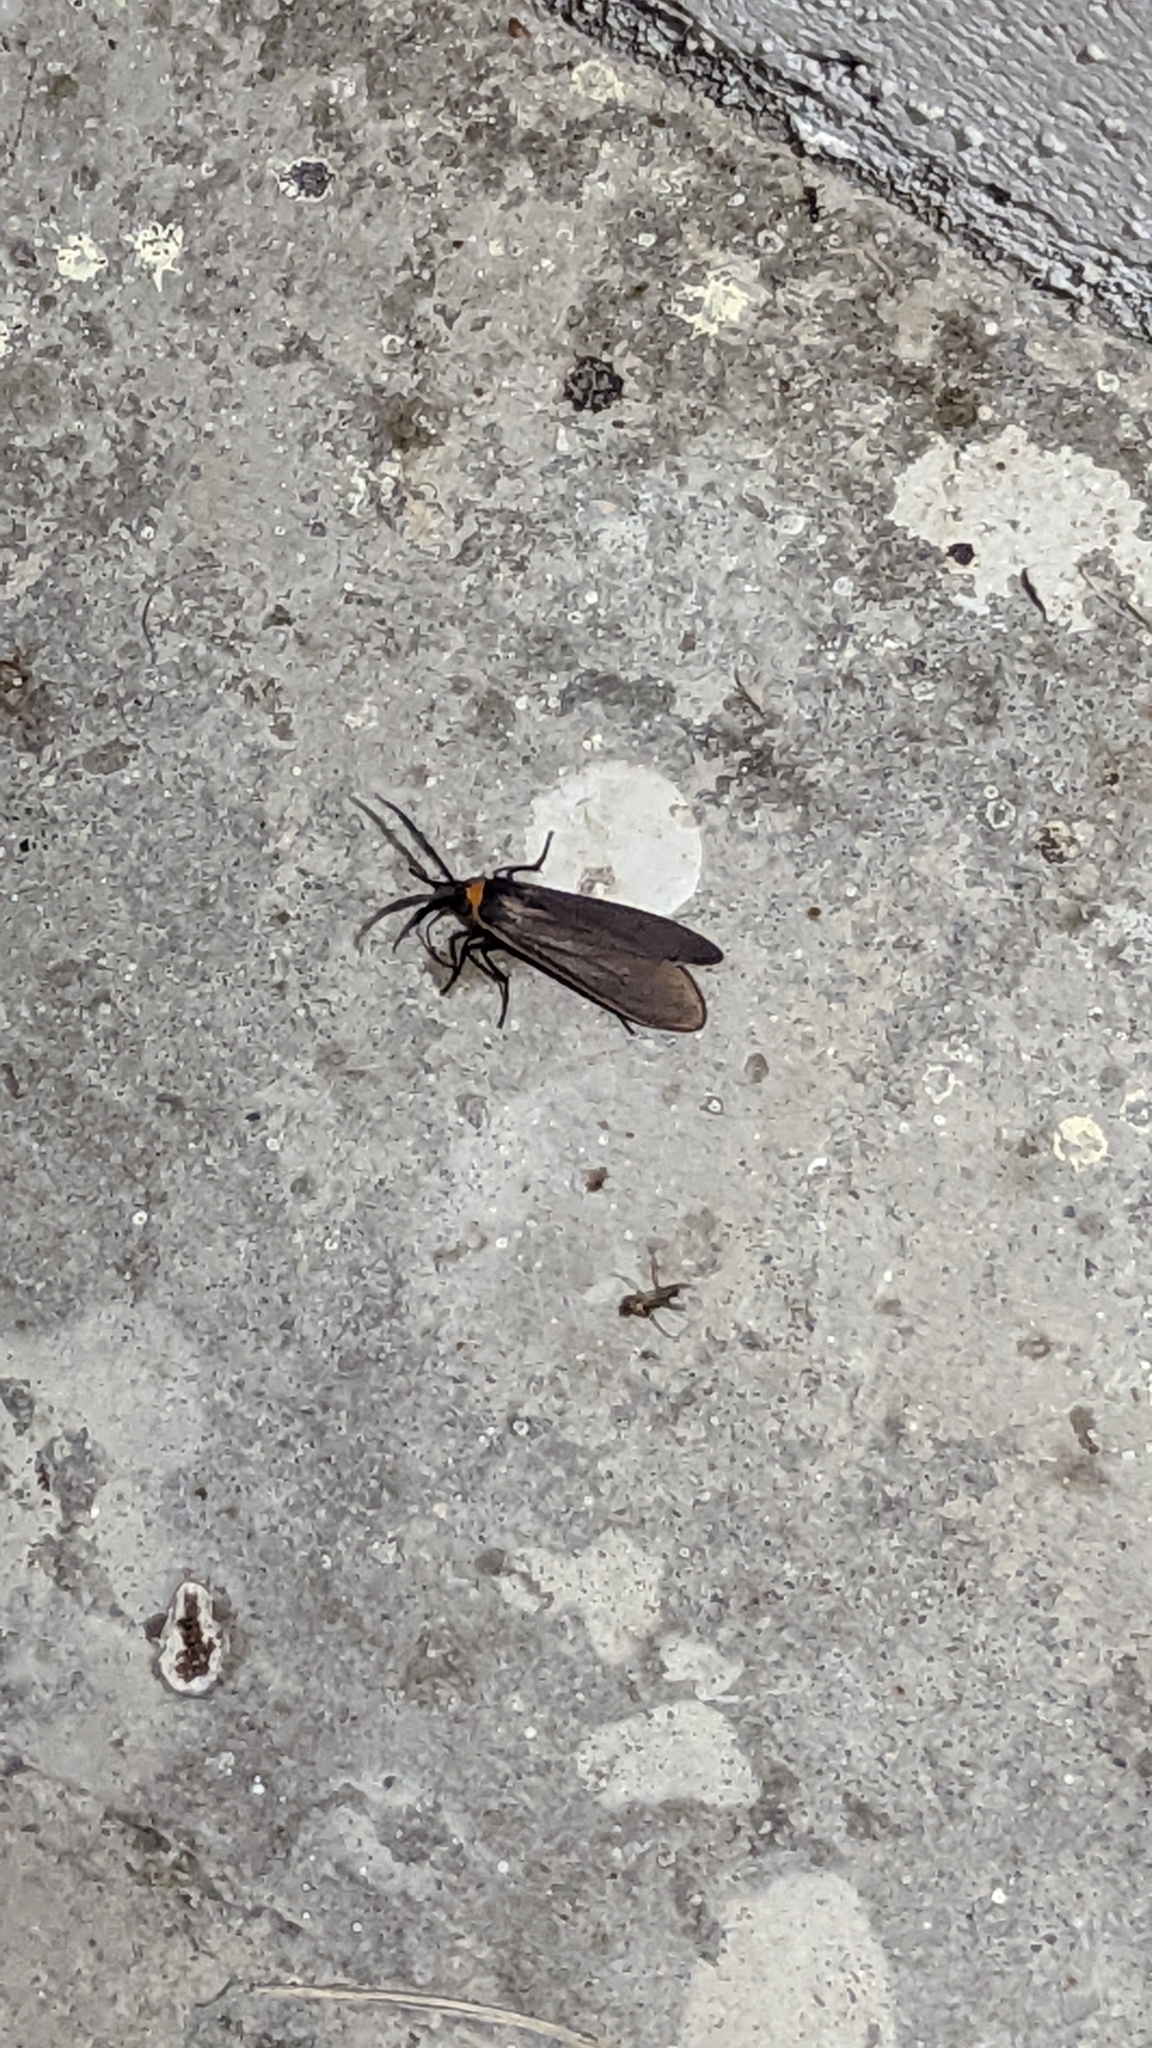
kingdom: Animalia
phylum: Arthropoda
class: Insecta
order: Lepidoptera
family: Erebidae
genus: Cisseps
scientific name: Cisseps fulvicollis
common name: Yellow-collared scape moth
